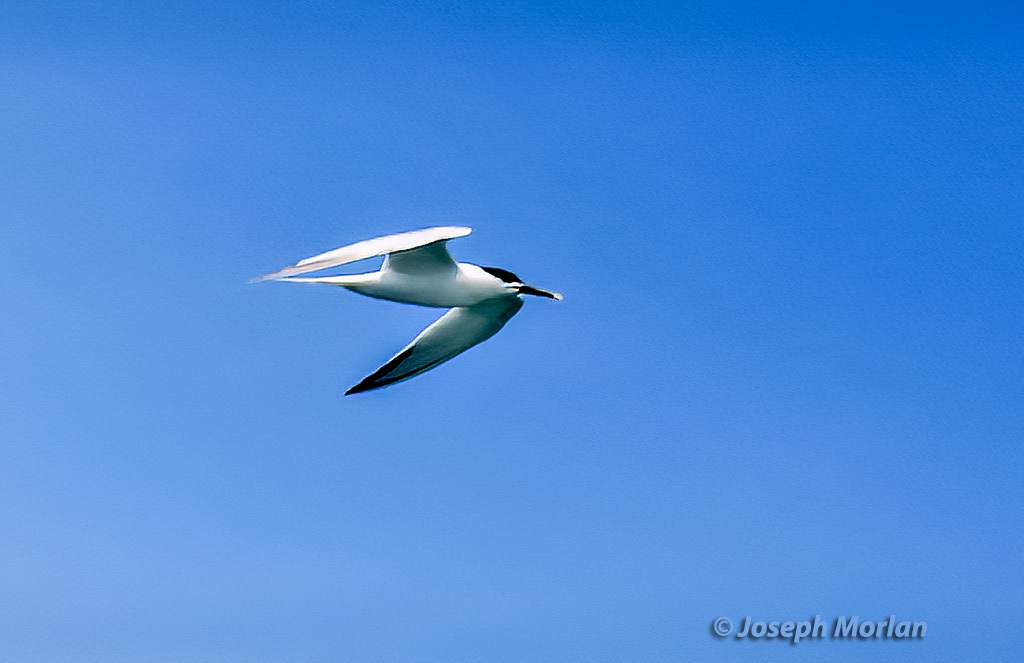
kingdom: Animalia
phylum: Chordata
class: Aves
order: Charadriiformes
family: Laridae
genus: Thalasseus
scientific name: Thalasseus sandvicensis
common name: Sandwich tern
